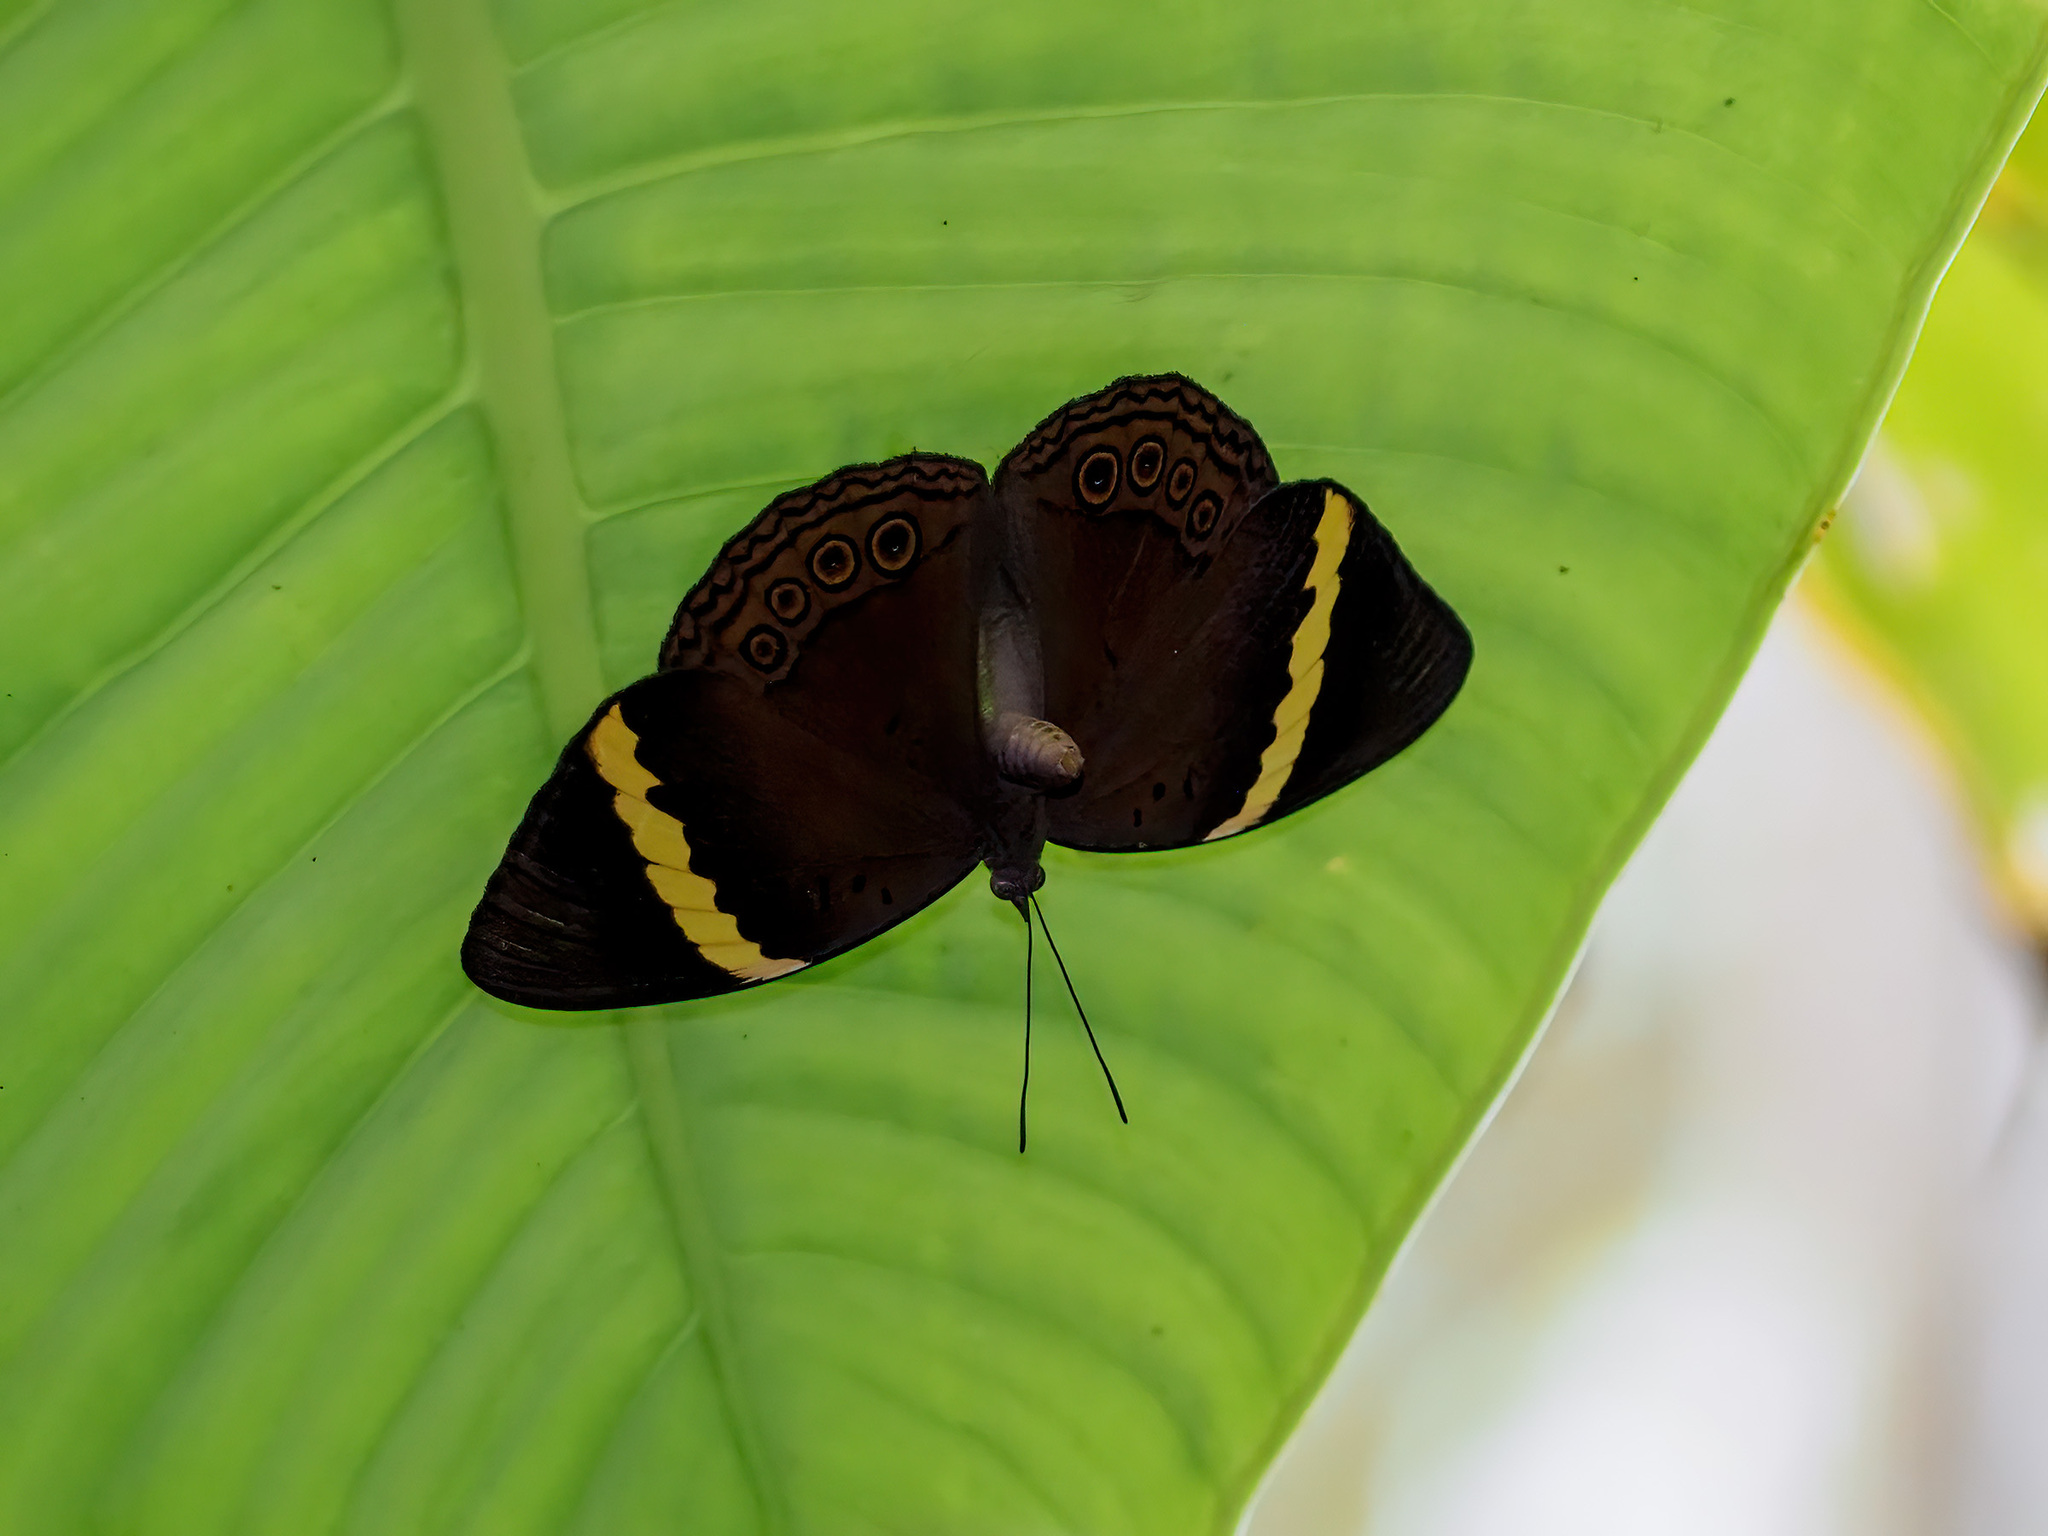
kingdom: Animalia
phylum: Arthropoda
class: Insecta
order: Lepidoptera
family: Nymphalidae
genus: Amnosia
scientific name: Amnosia decora
